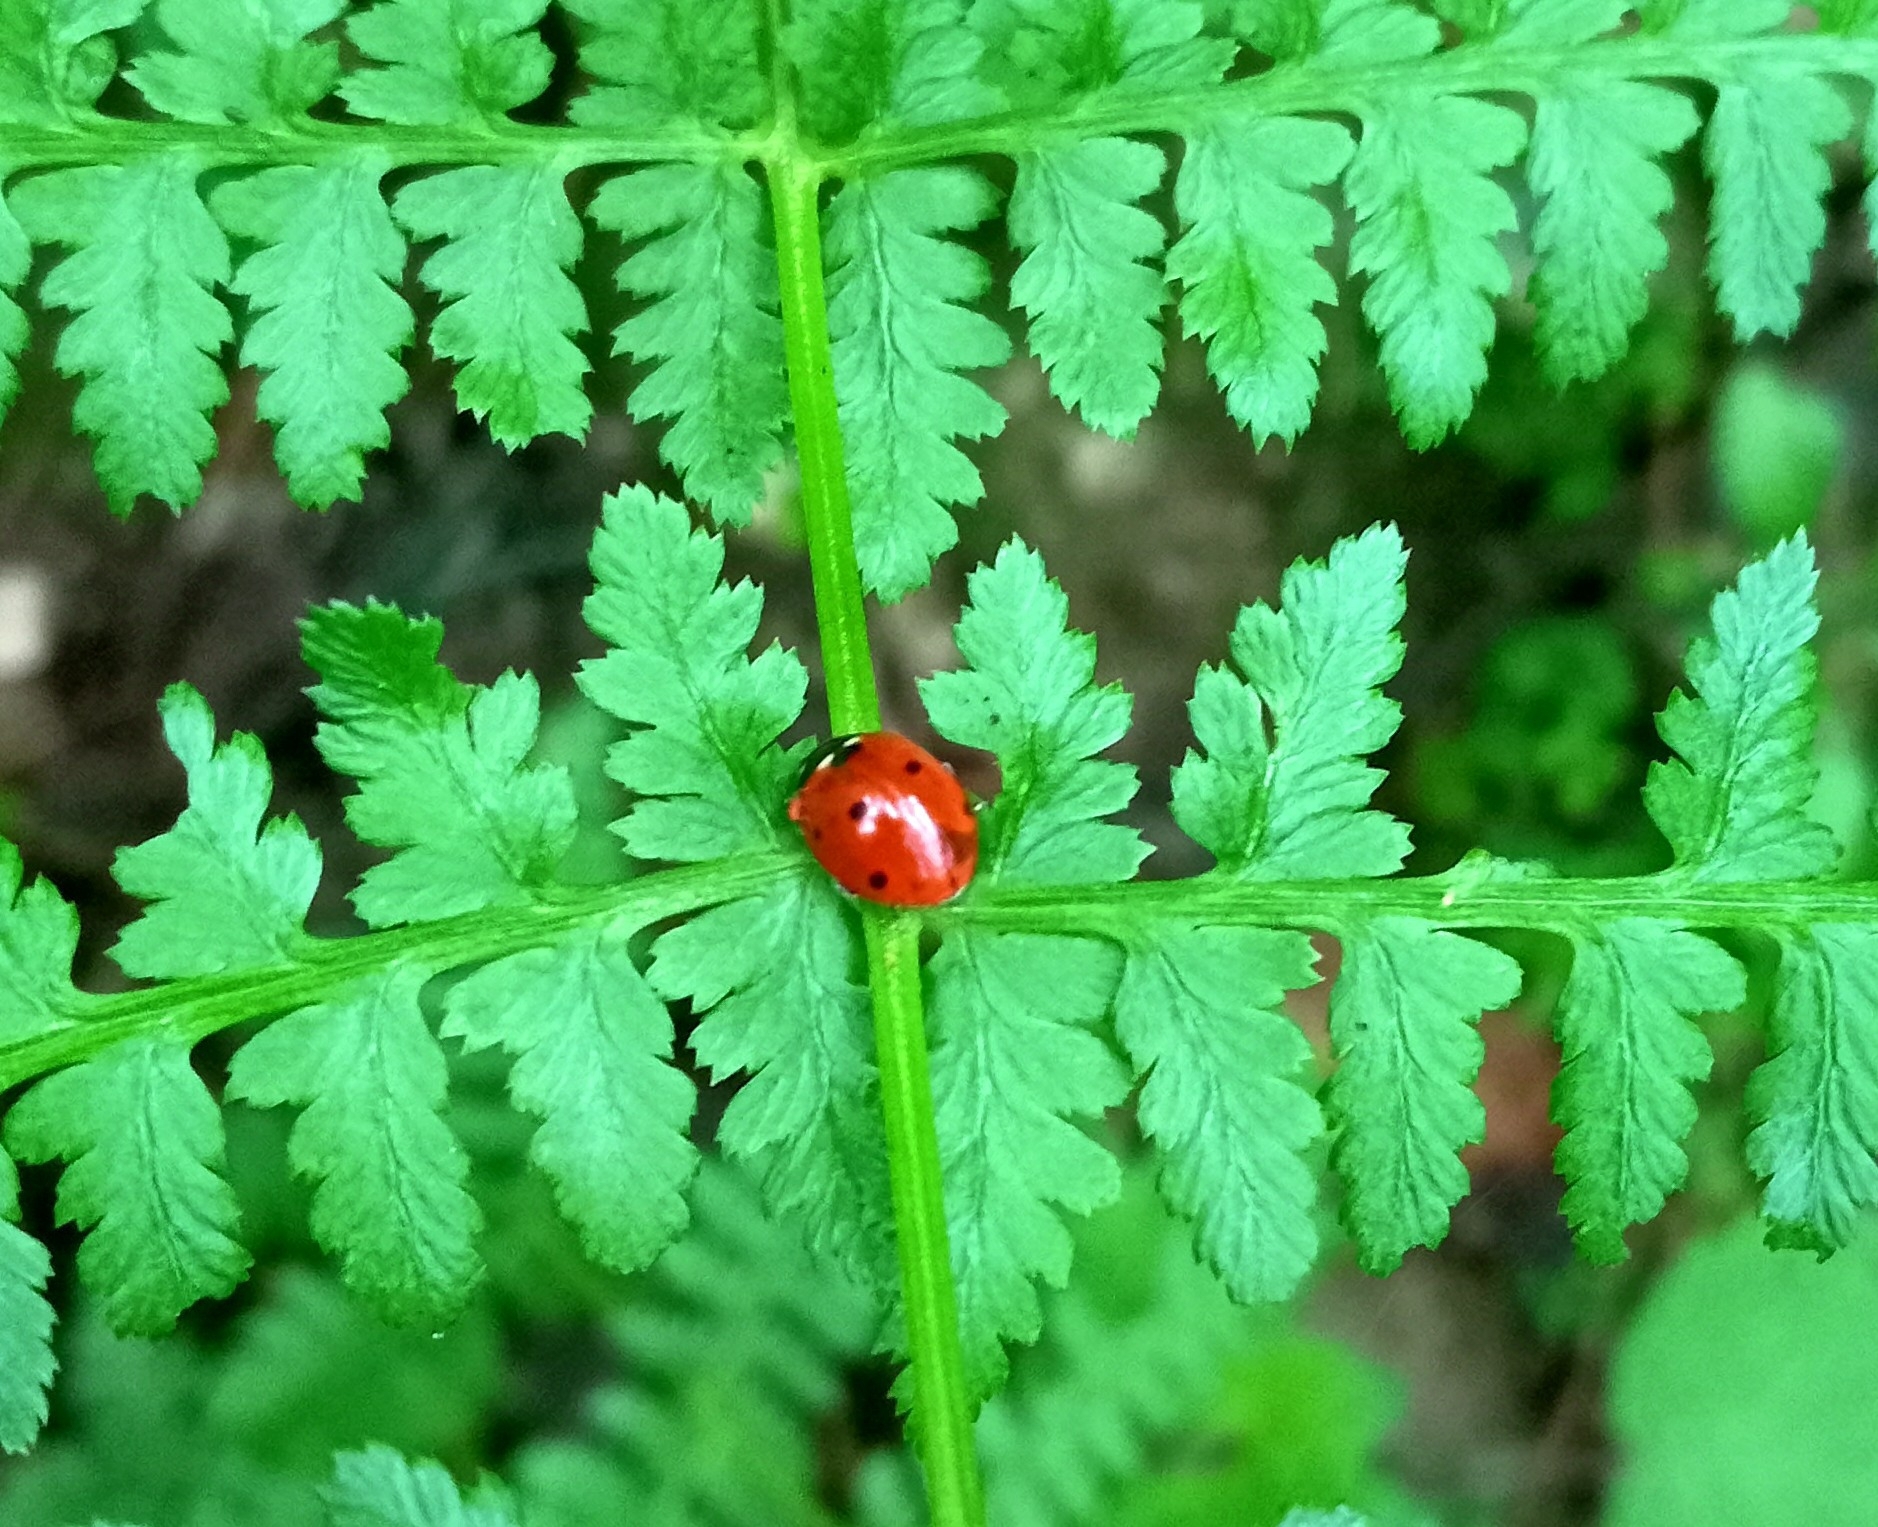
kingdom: Animalia
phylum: Arthropoda
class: Insecta
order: Coleoptera
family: Coccinellidae
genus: Coccinella
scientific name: Coccinella septempunctata
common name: Sevenspotted lady beetle
